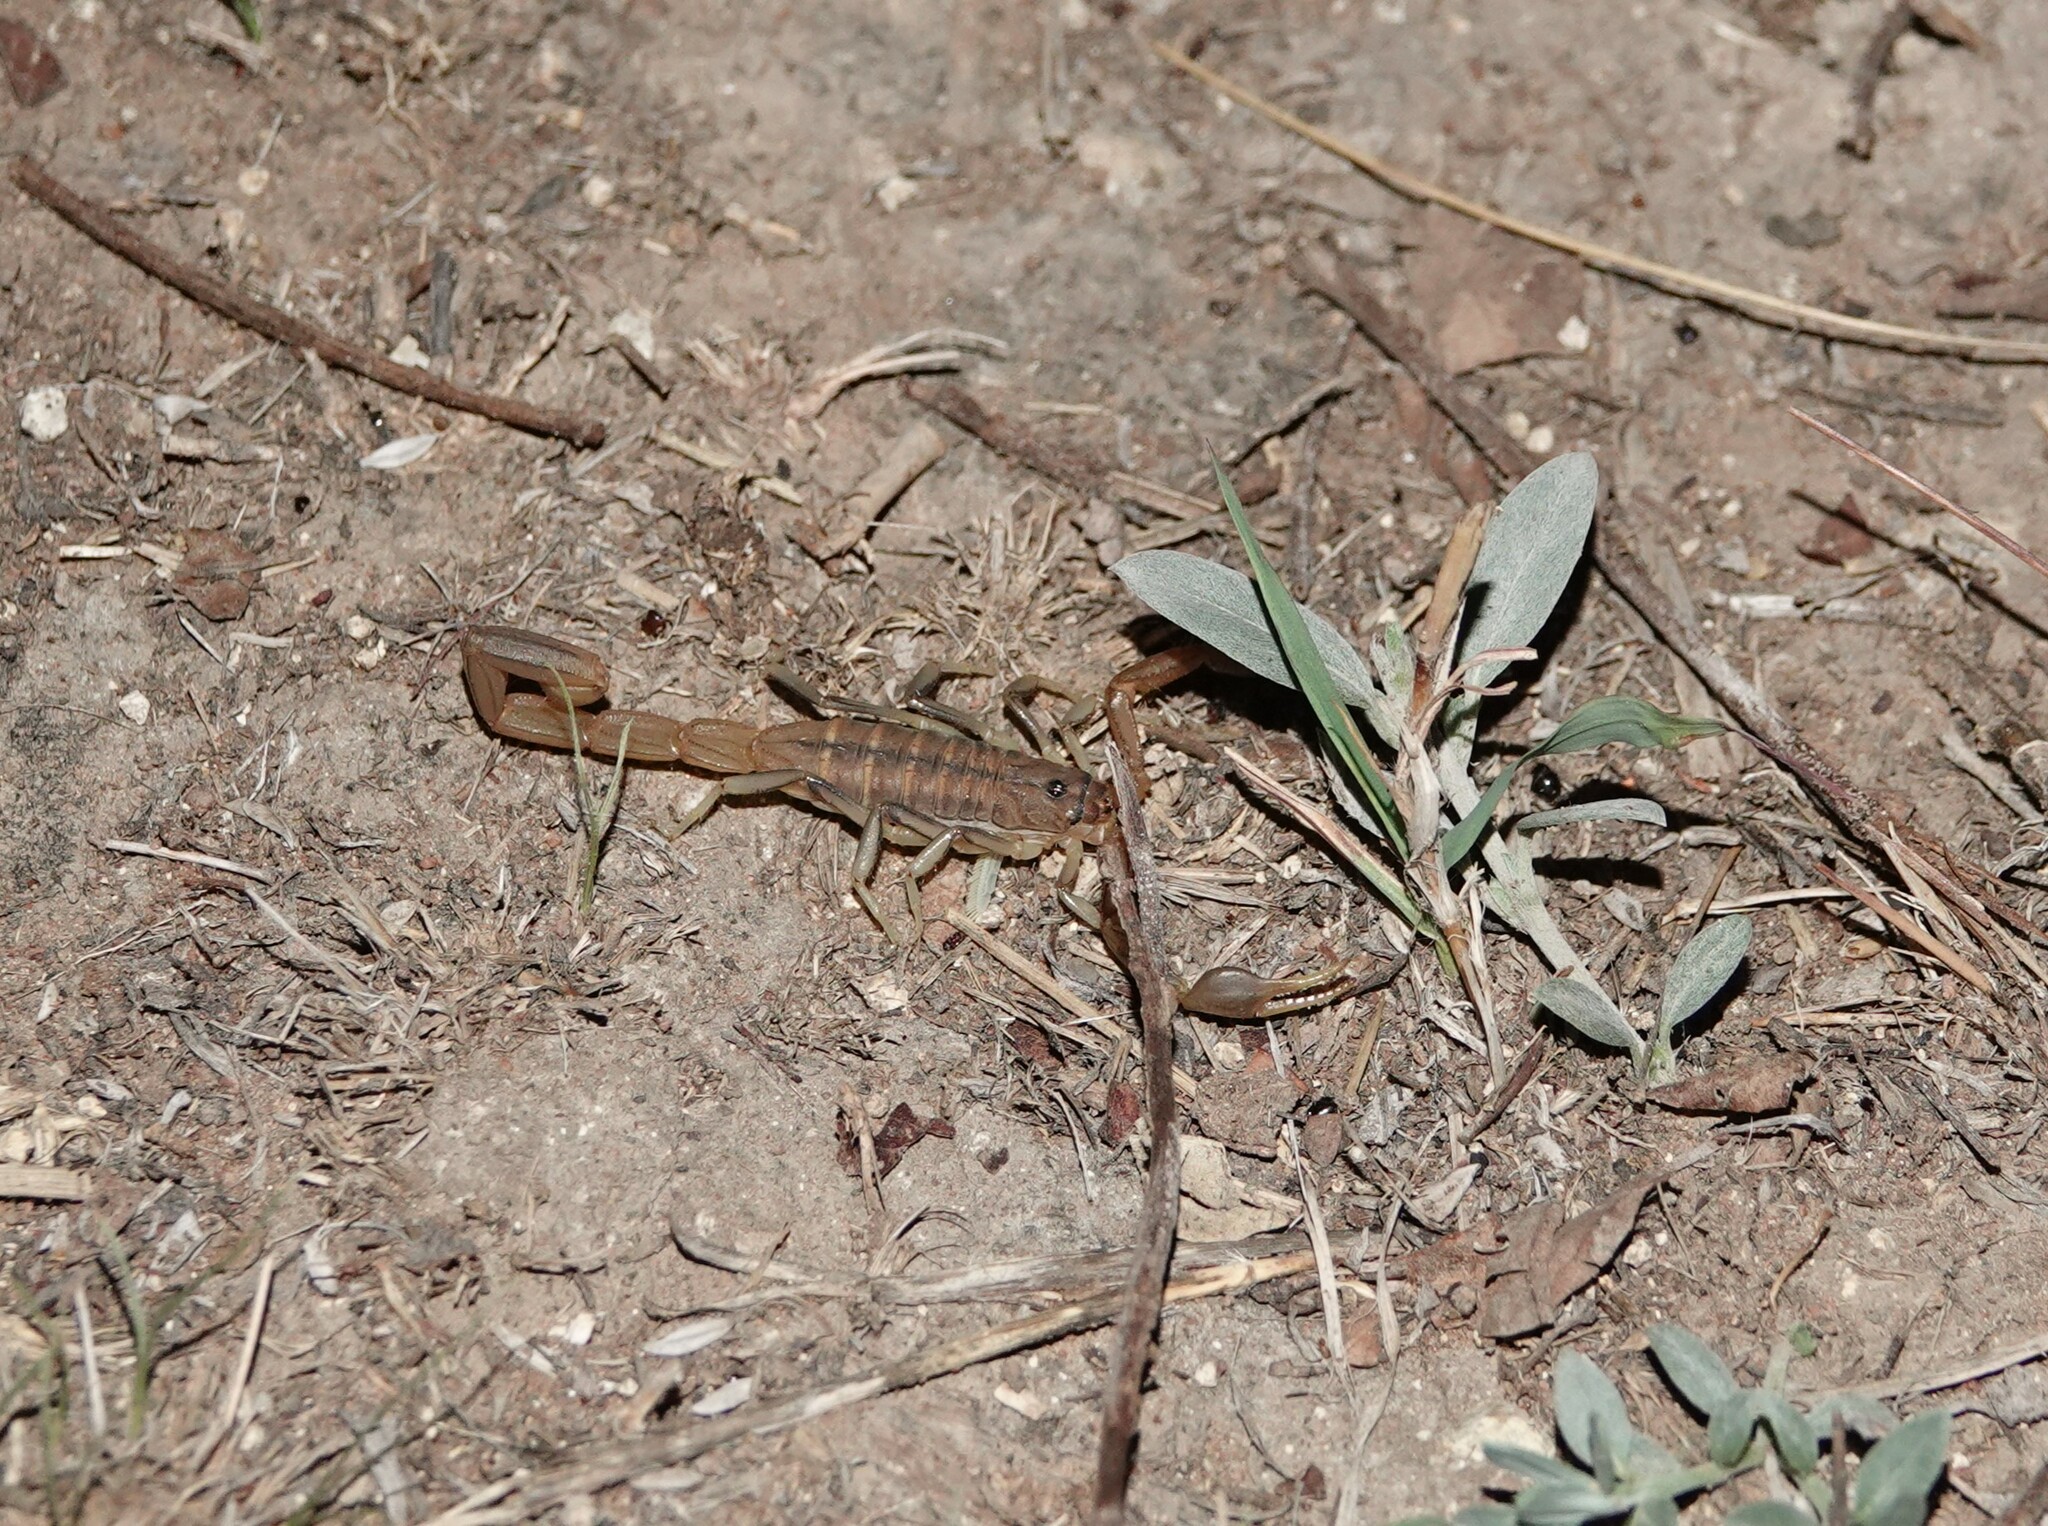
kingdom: Animalia
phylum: Arthropoda
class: Arachnida
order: Scorpiones
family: Buthidae
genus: Uroplectes
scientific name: Uroplectes planimanus
